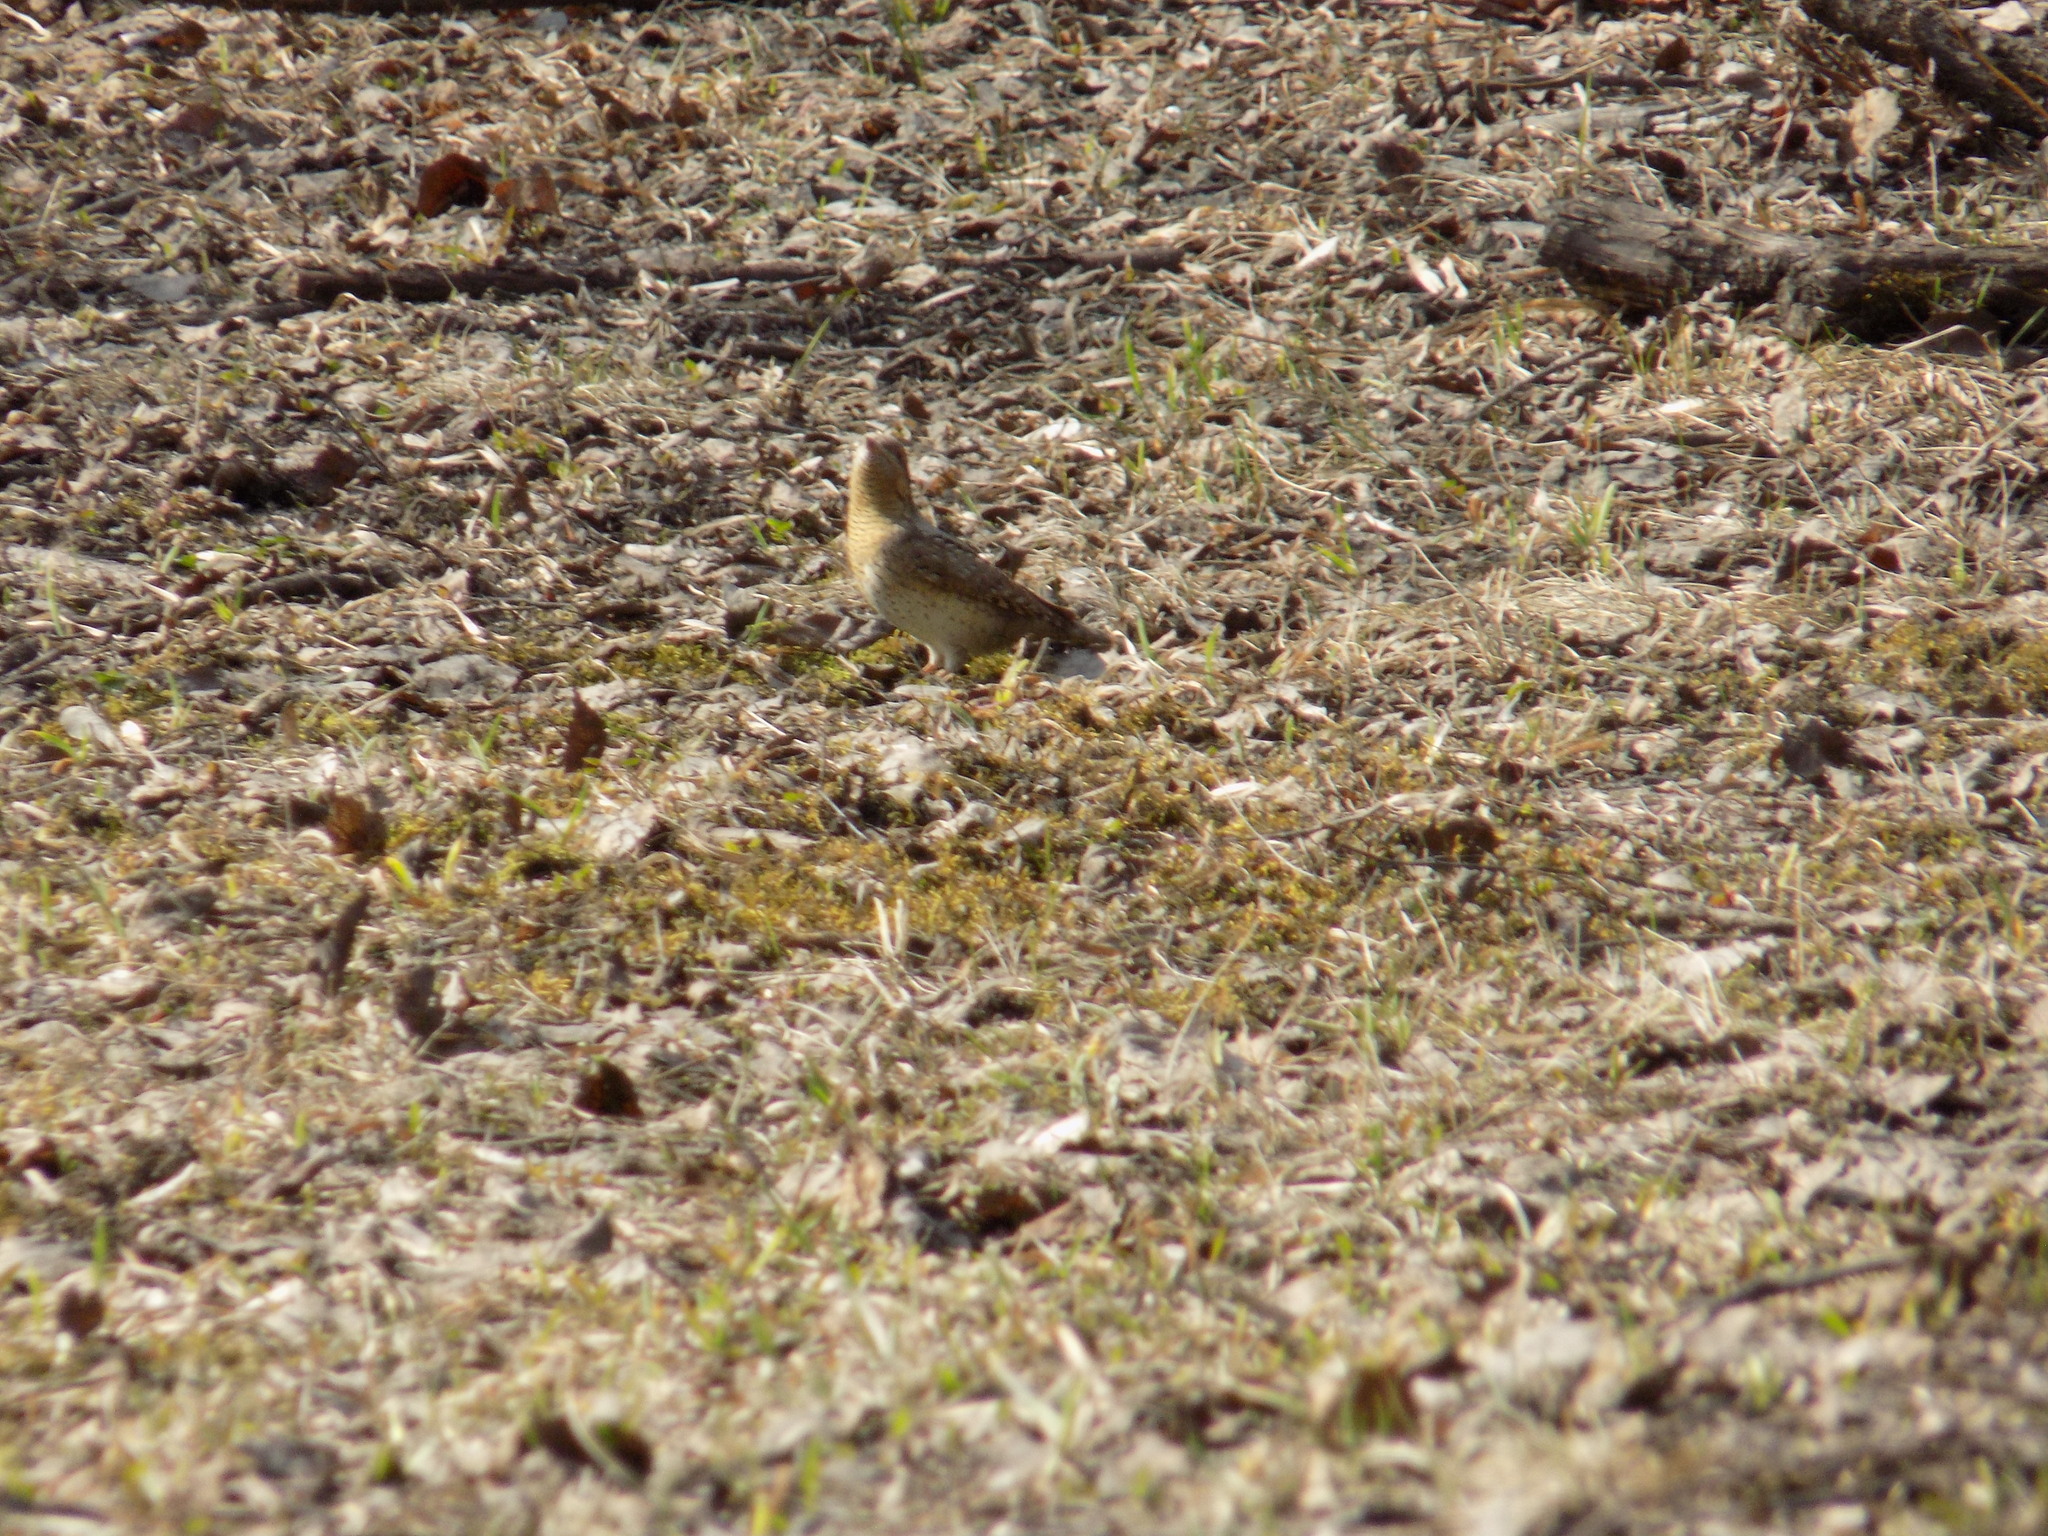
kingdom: Animalia
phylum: Chordata
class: Aves
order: Piciformes
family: Picidae
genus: Jynx
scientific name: Jynx torquilla
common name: Eurasian wryneck
